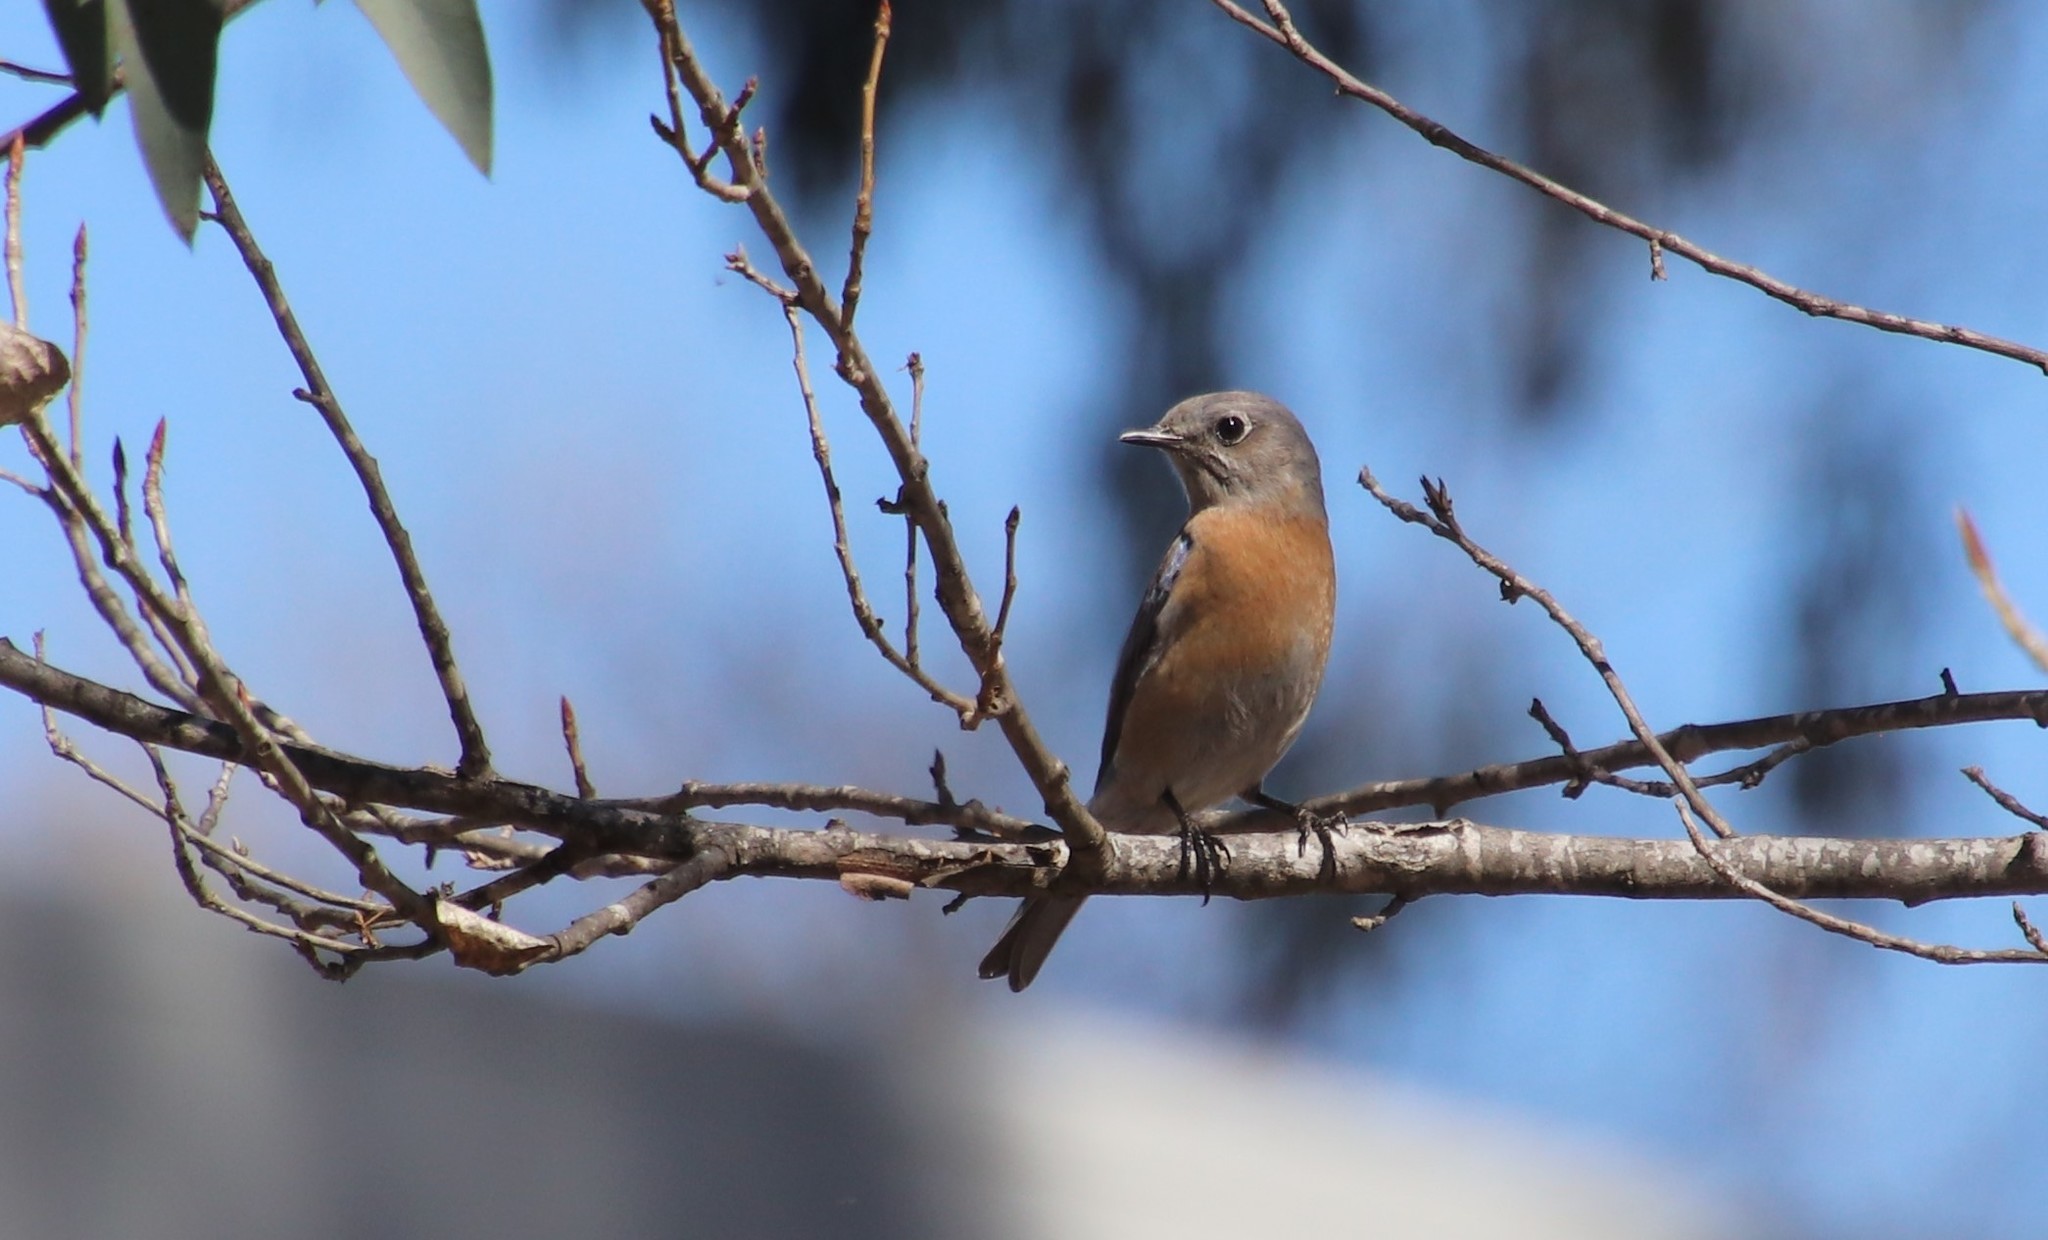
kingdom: Animalia
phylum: Chordata
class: Aves
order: Passeriformes
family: Turdidae
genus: Sialia
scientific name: Sialia mexicana
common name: Western bluebird
